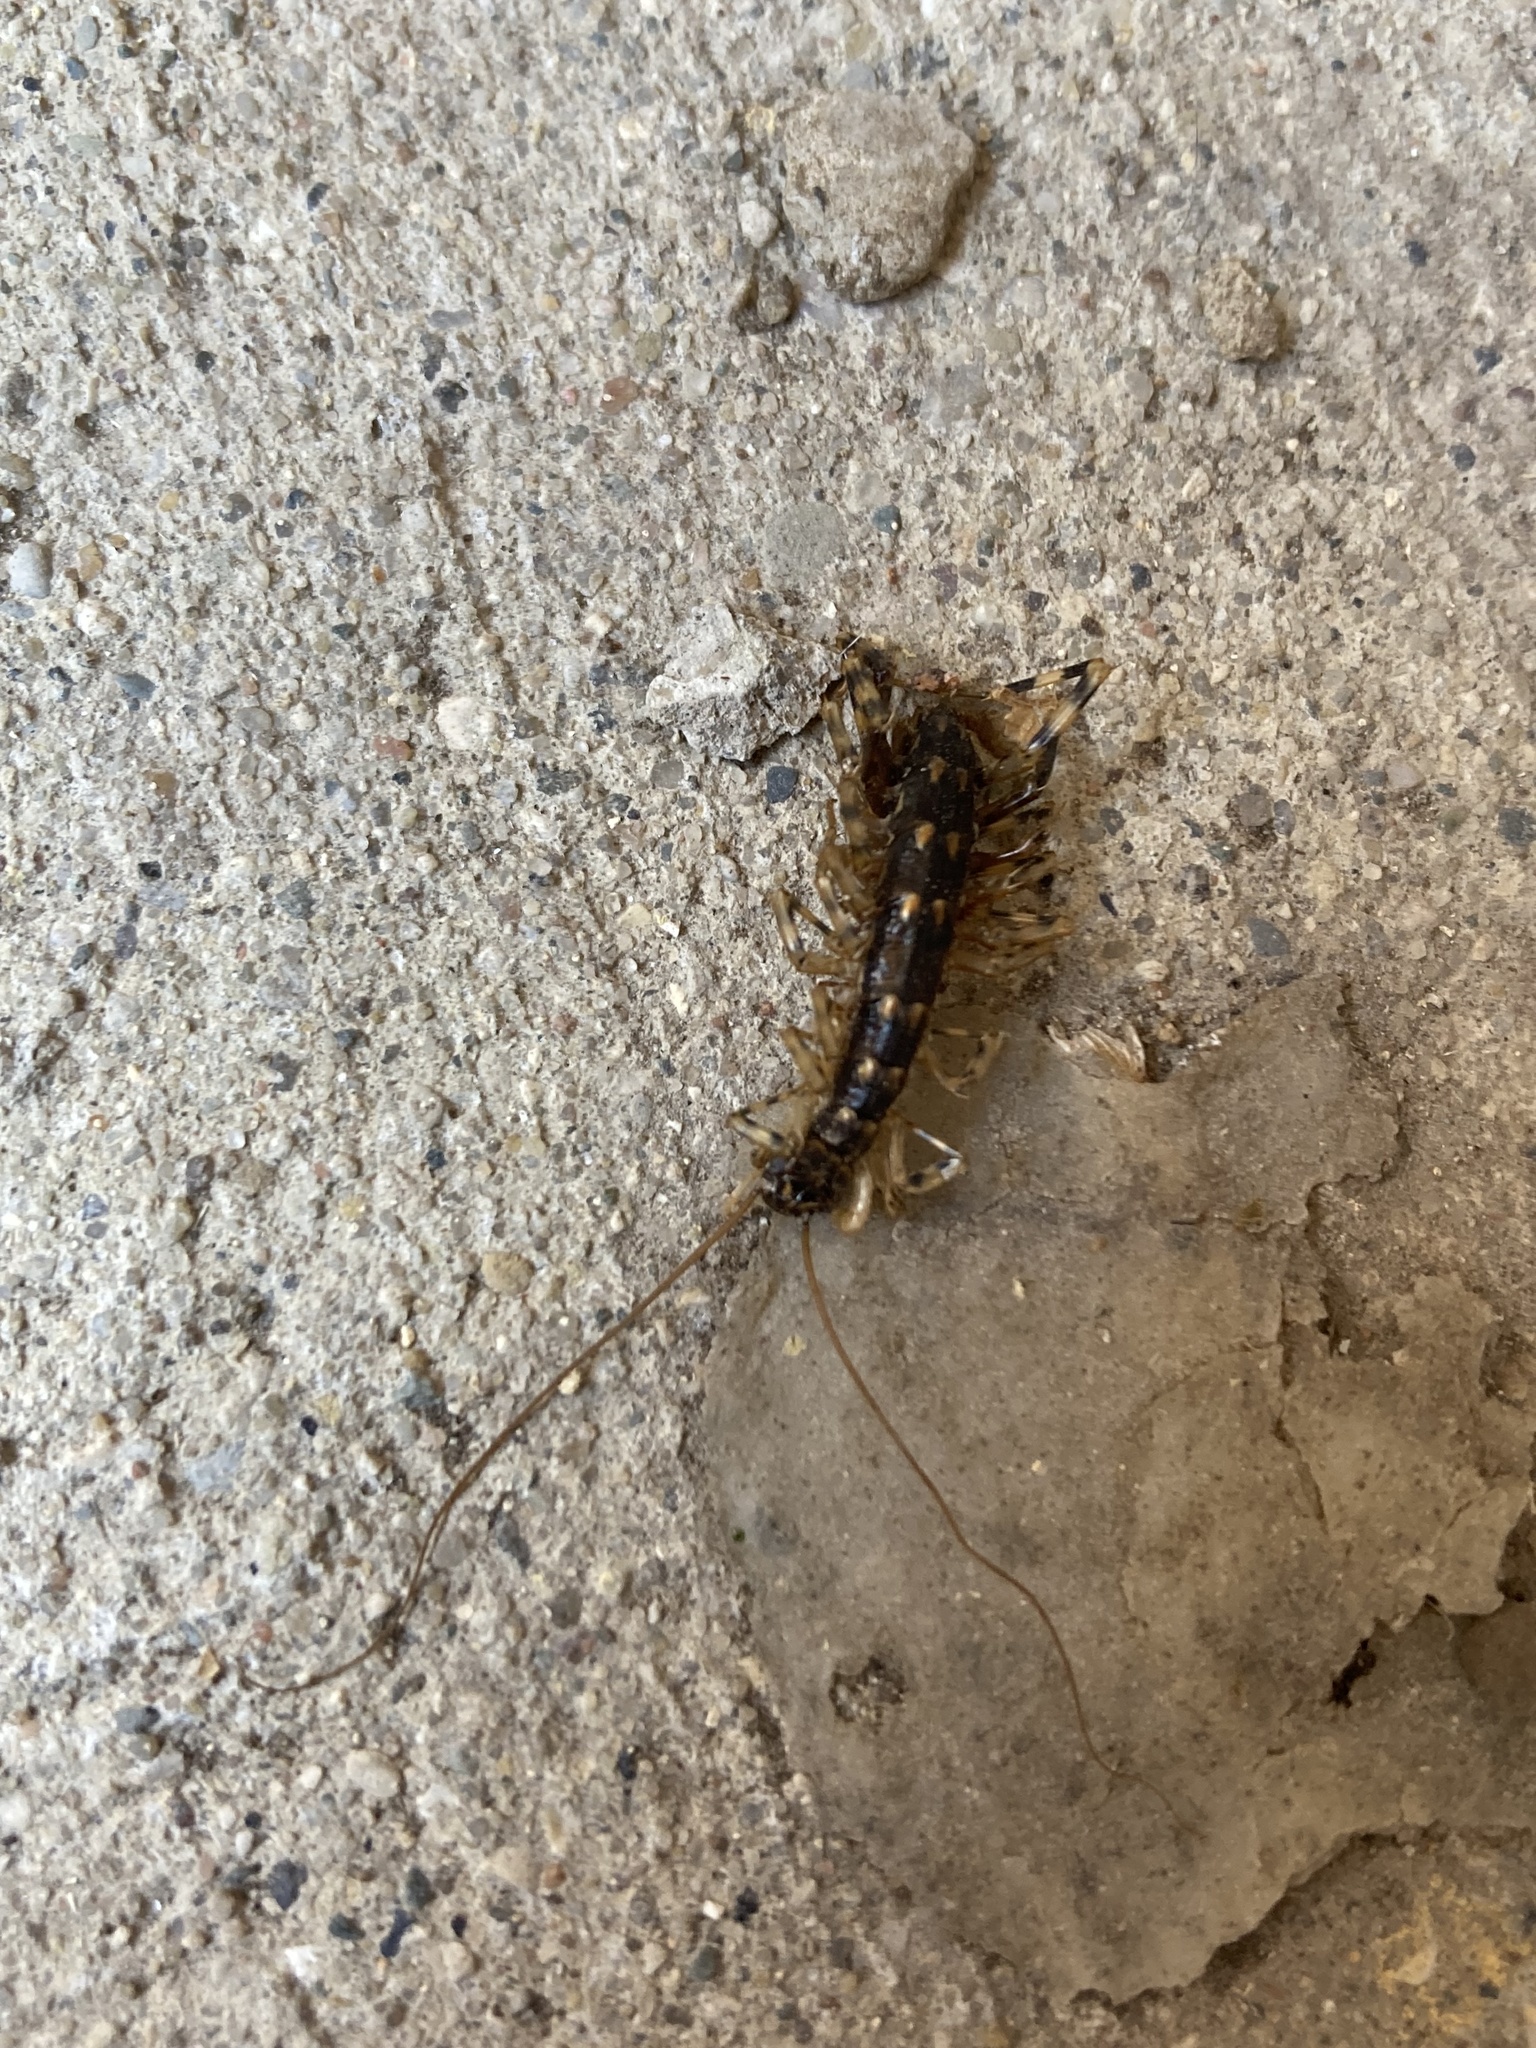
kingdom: Animalia
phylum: Arthropoda
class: Chilopoda
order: Scutigeromorpha
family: Scutigeridae
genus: Thereuonema
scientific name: Thereuonema tuberculata
